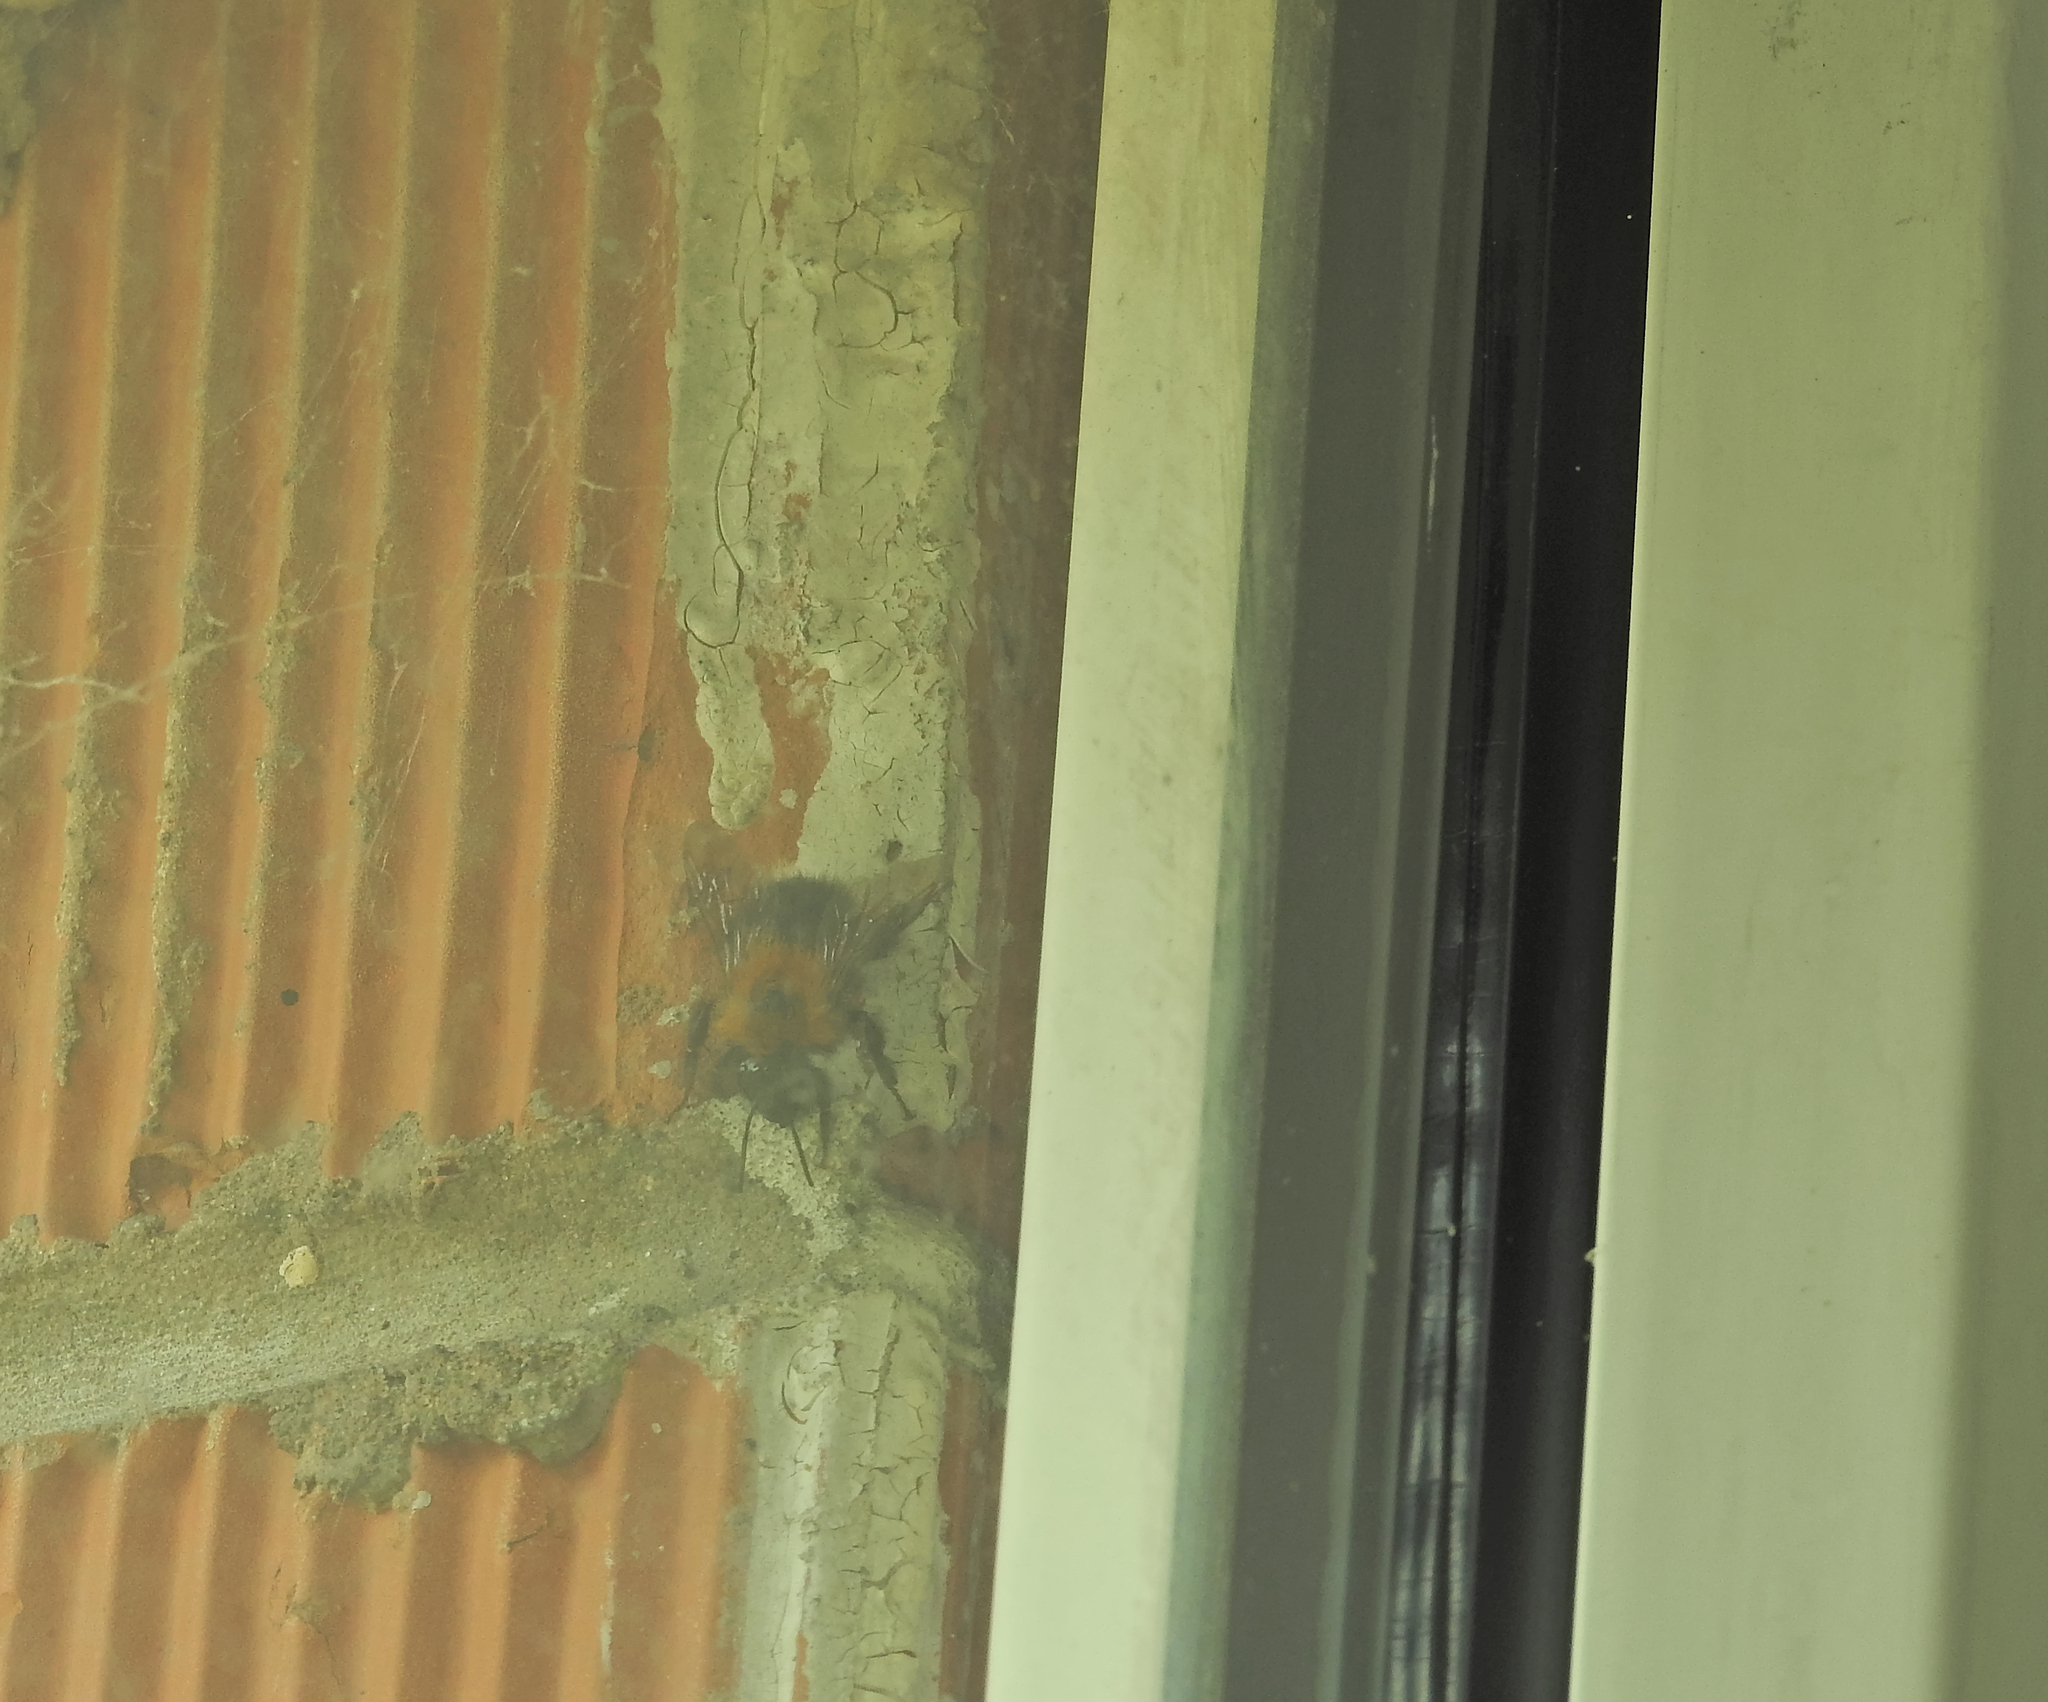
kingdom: Animalia
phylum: Arthropoda
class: Insecta
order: Hymenoptera
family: Apidae
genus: Bombus
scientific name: Bombus hypnorum
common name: New garden bumblebee
